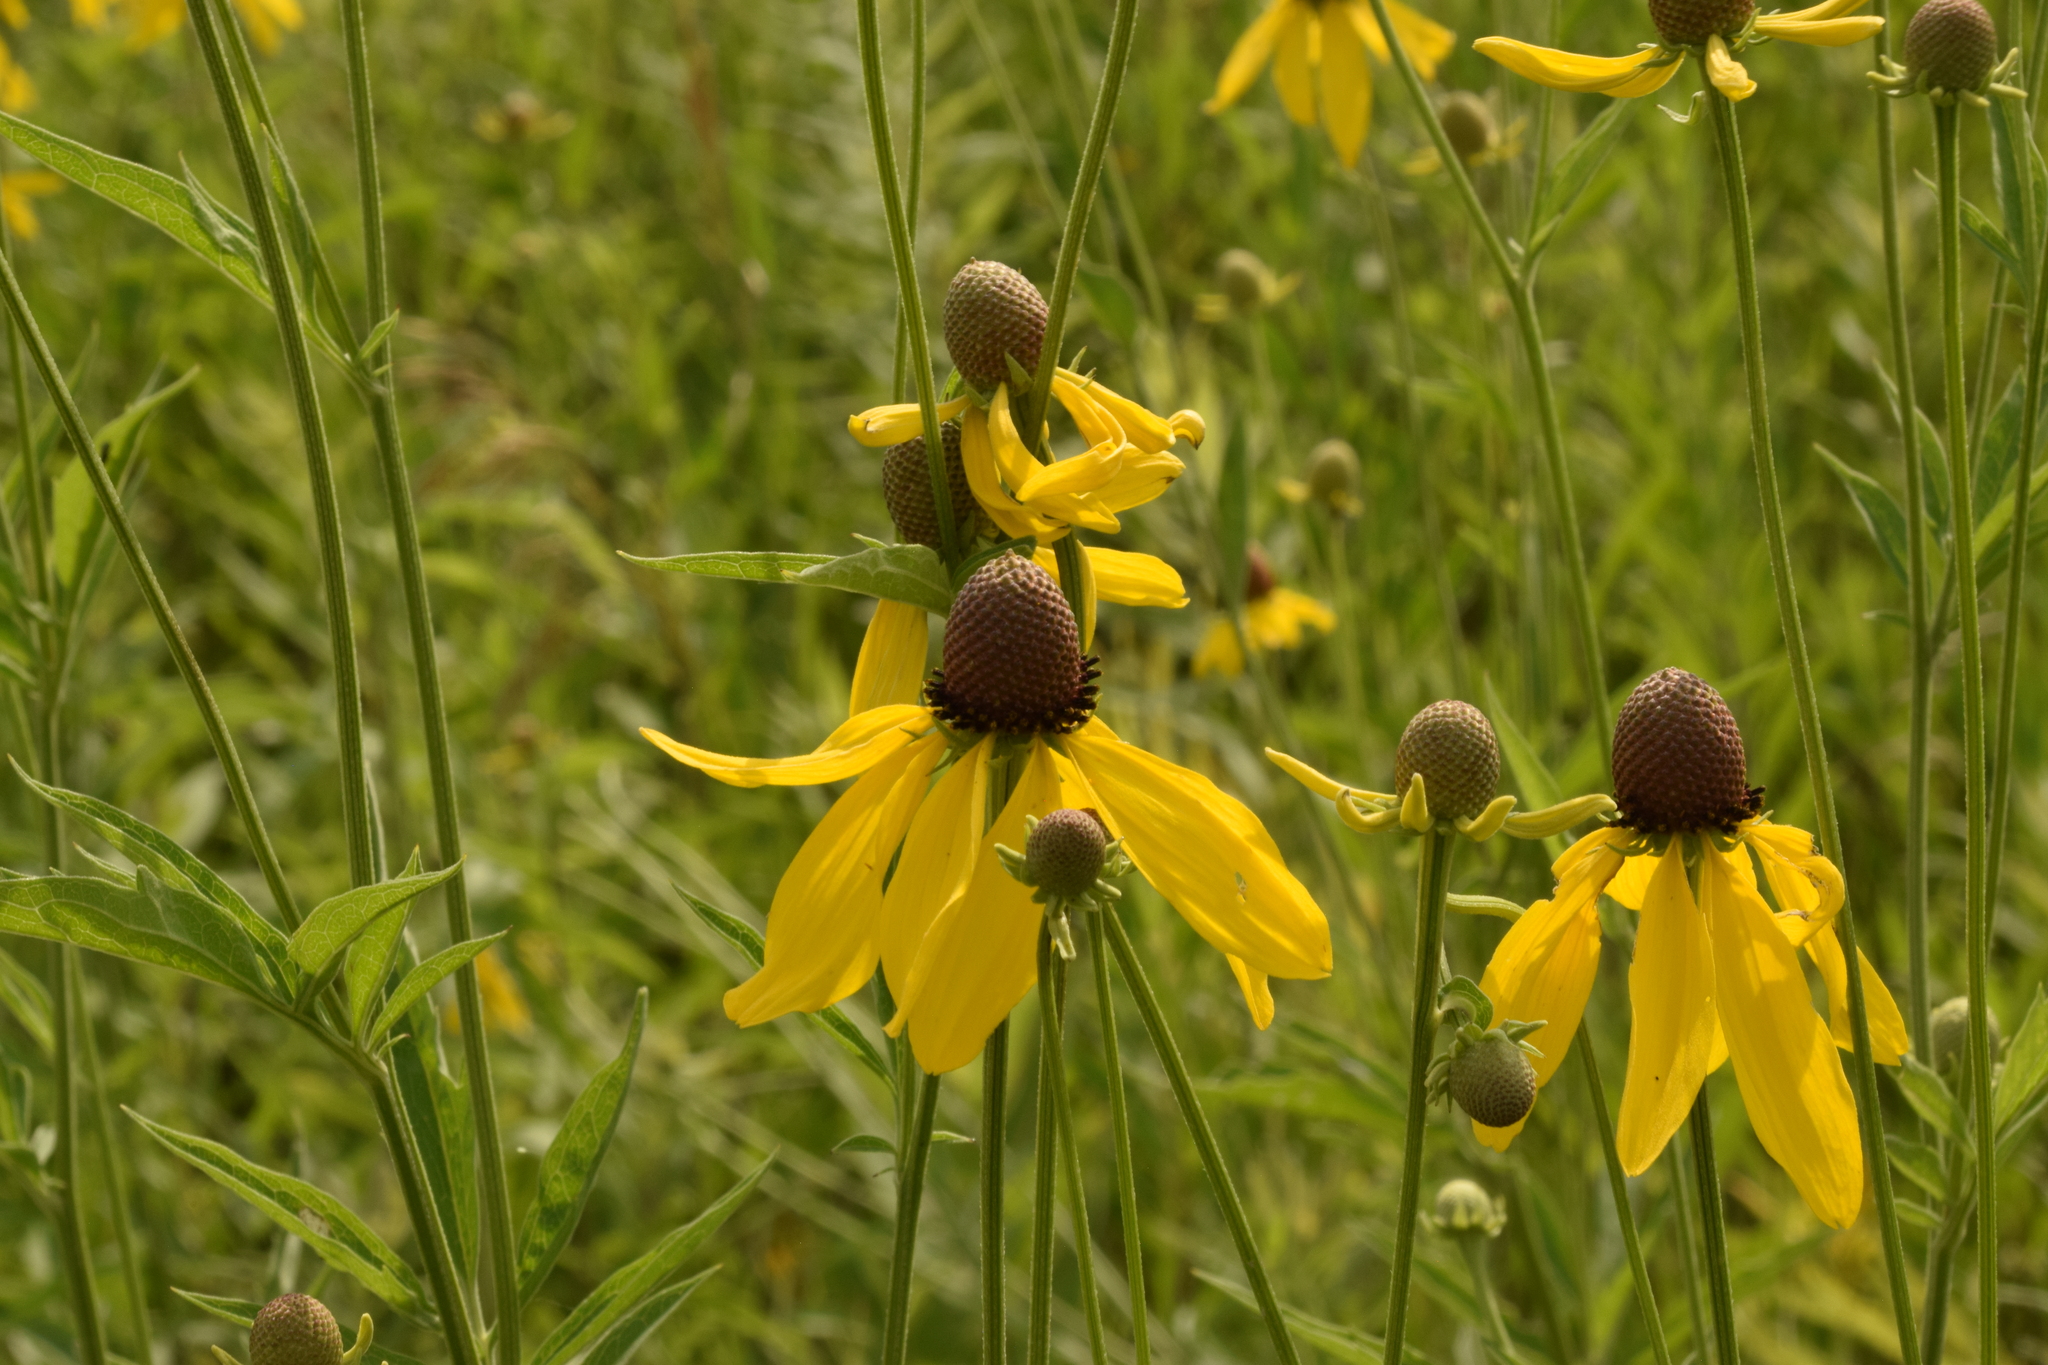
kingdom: Plantae
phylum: Tracheophyta
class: Magnoliopsida
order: Asterales
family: Asteraceae
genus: Ratibida
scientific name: Ratibida pinnata
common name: Drooping prairie-coneflower
